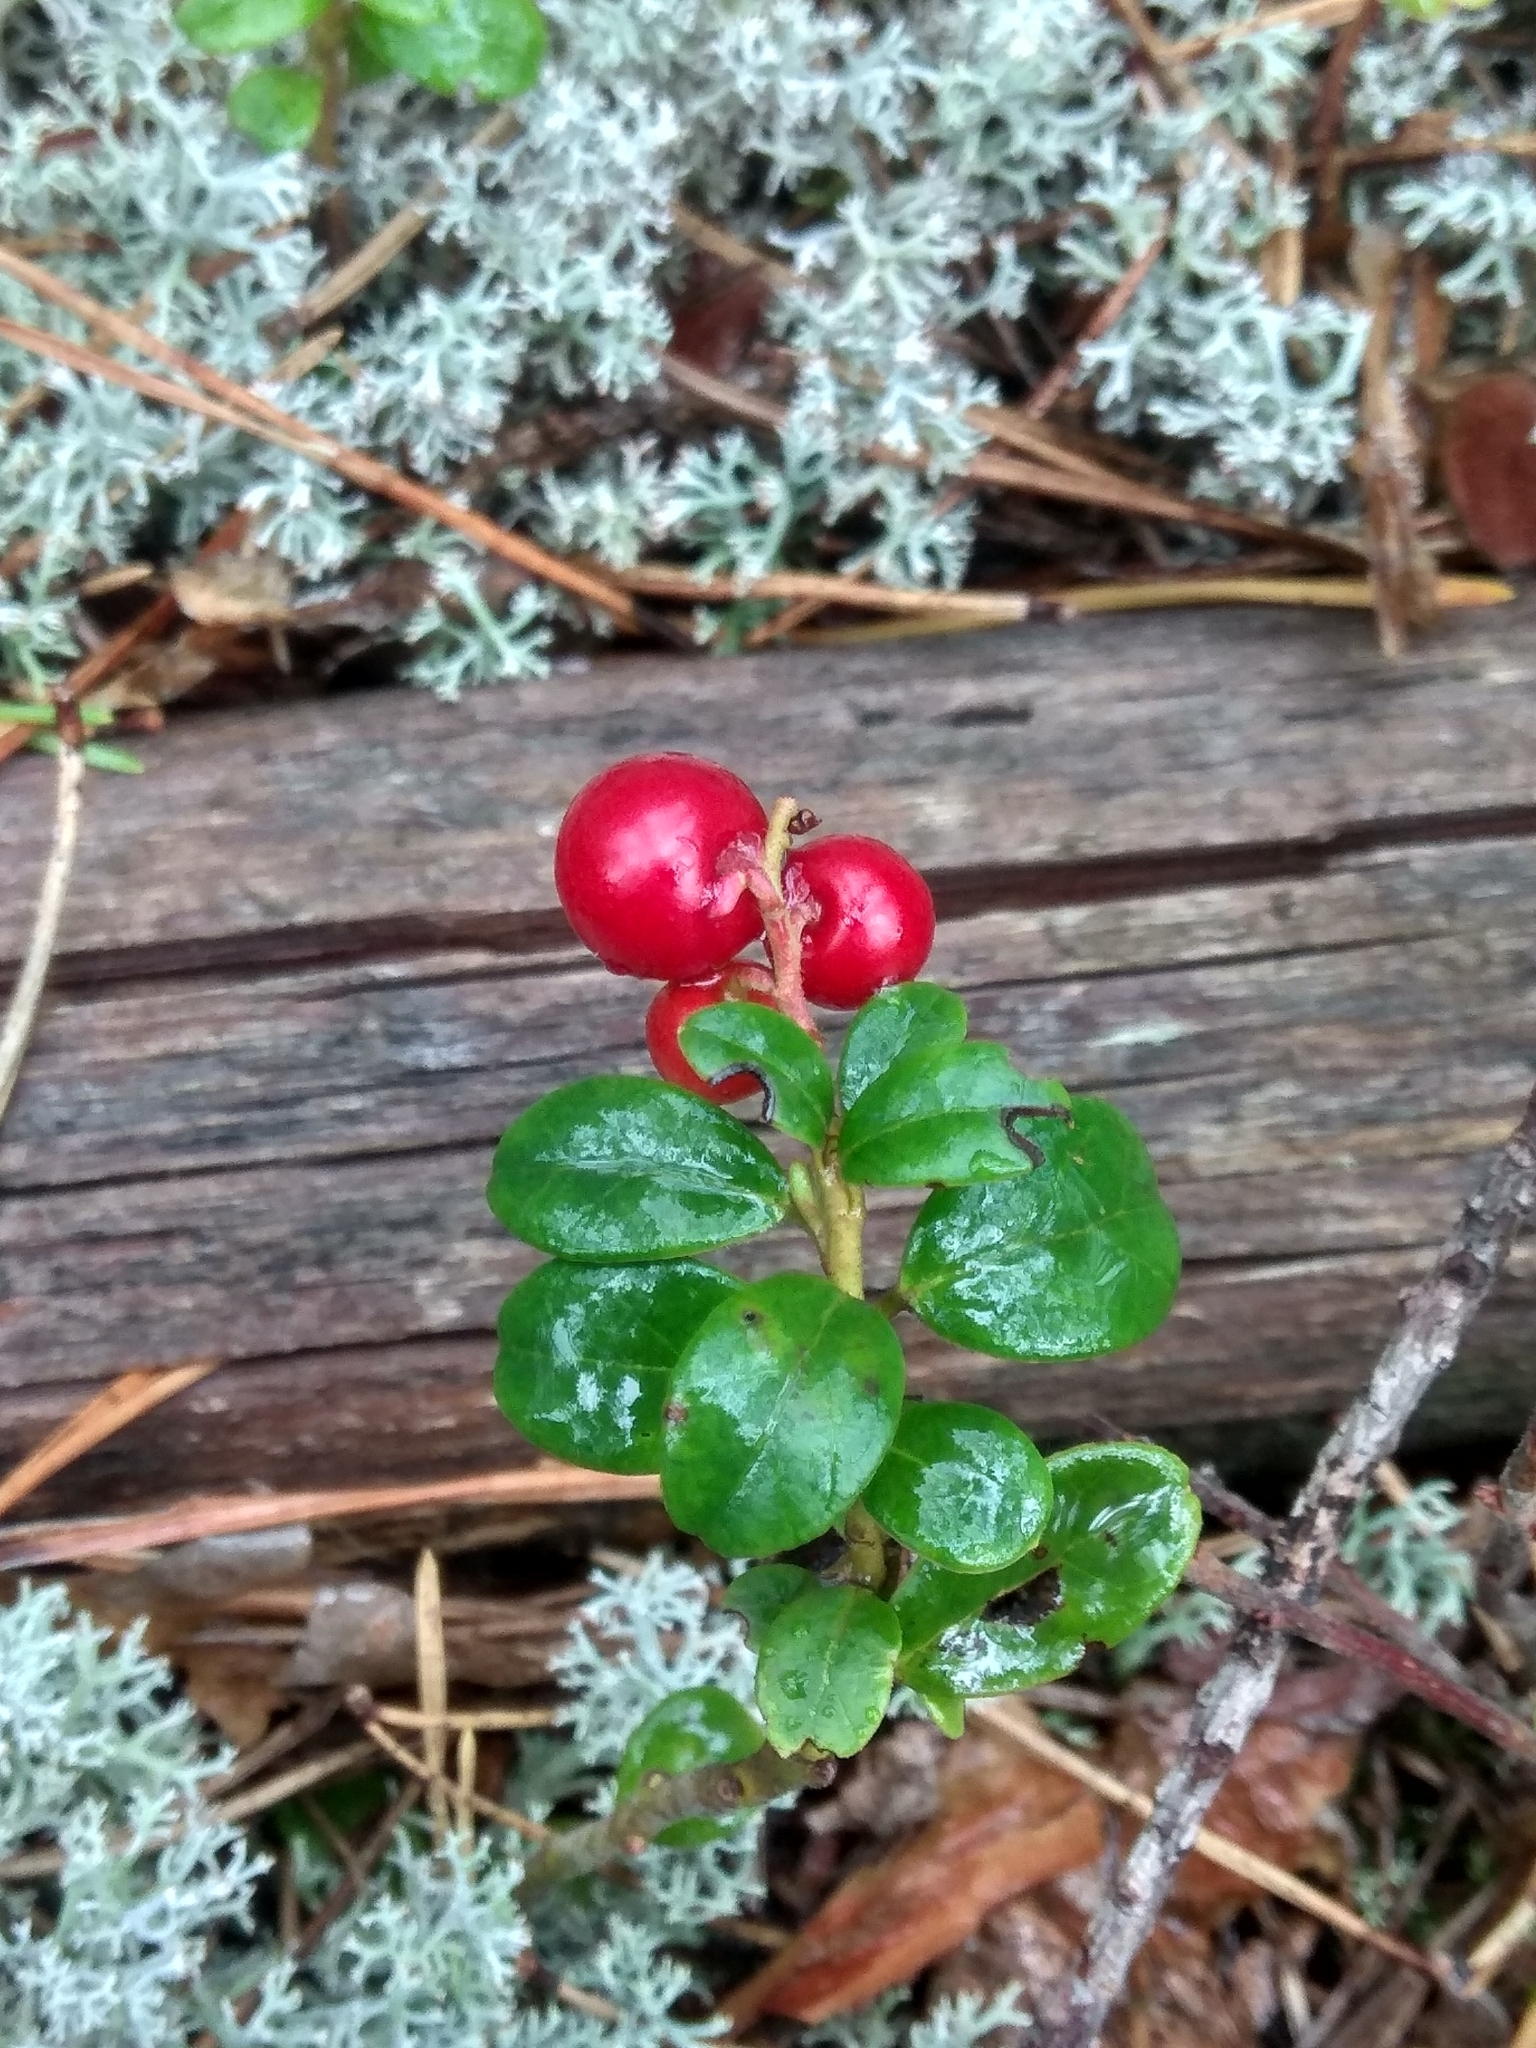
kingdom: Plantae
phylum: Tracheophyta
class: Magnoliopsida
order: Ericales
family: Ericaceae
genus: Vaccinium
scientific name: Vaccinium vitis-idaea
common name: Cowberry
